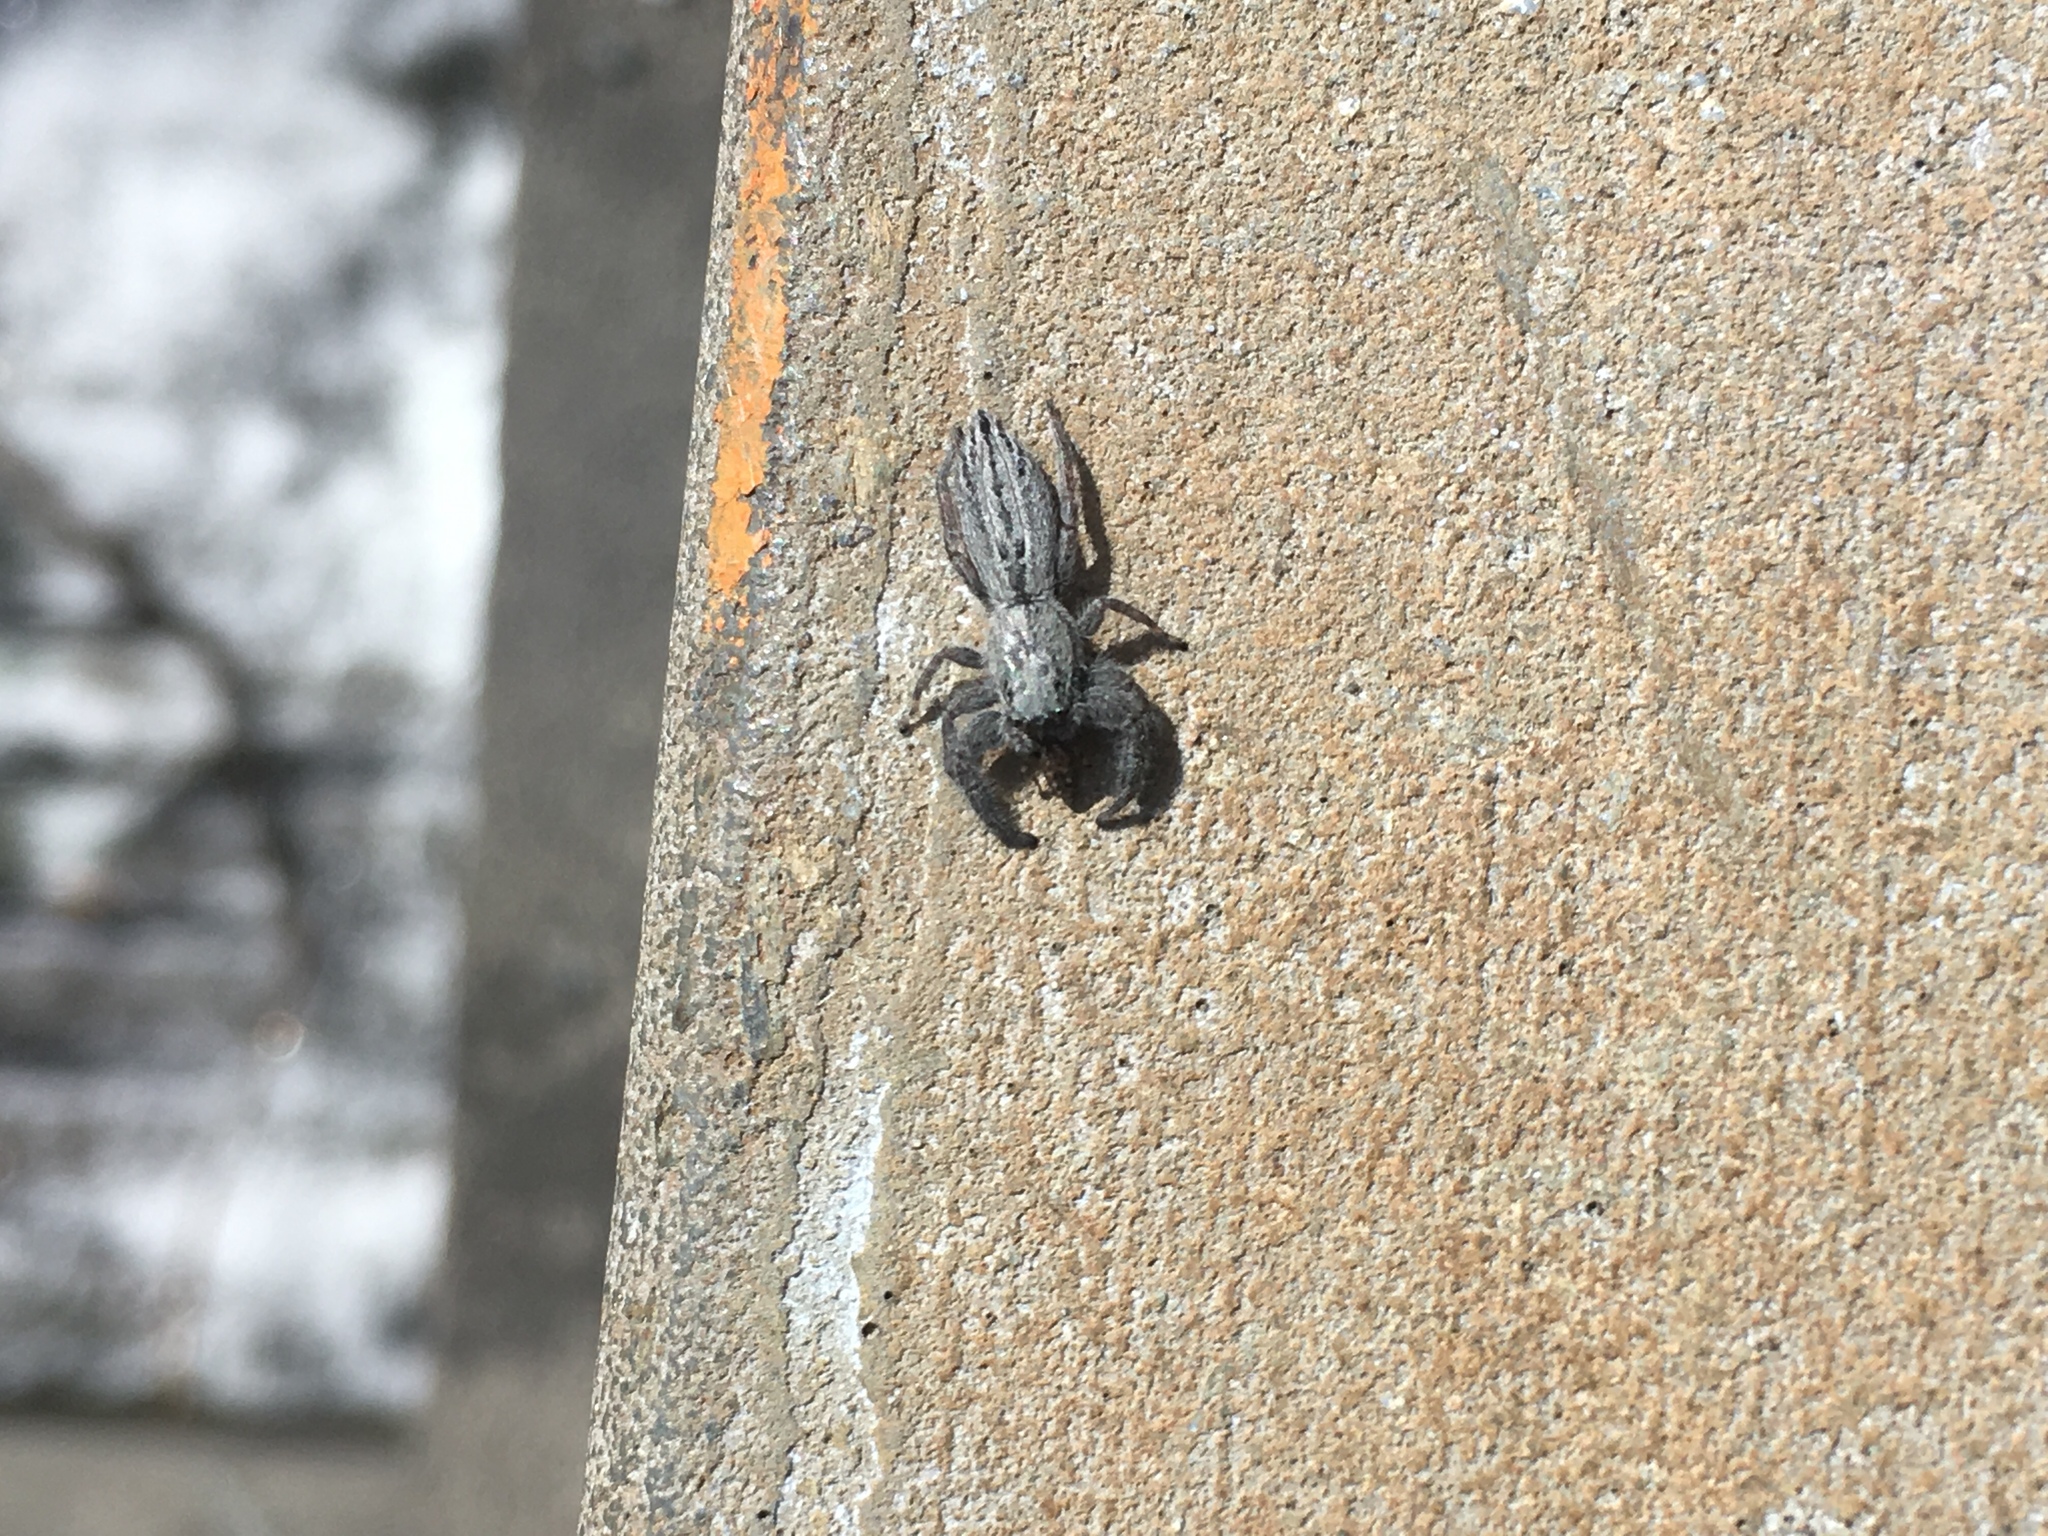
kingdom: Animalia
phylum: Arthropoda
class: Arachnida
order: Araneae
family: Salticidae
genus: Holoplatys
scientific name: Holoplatys
